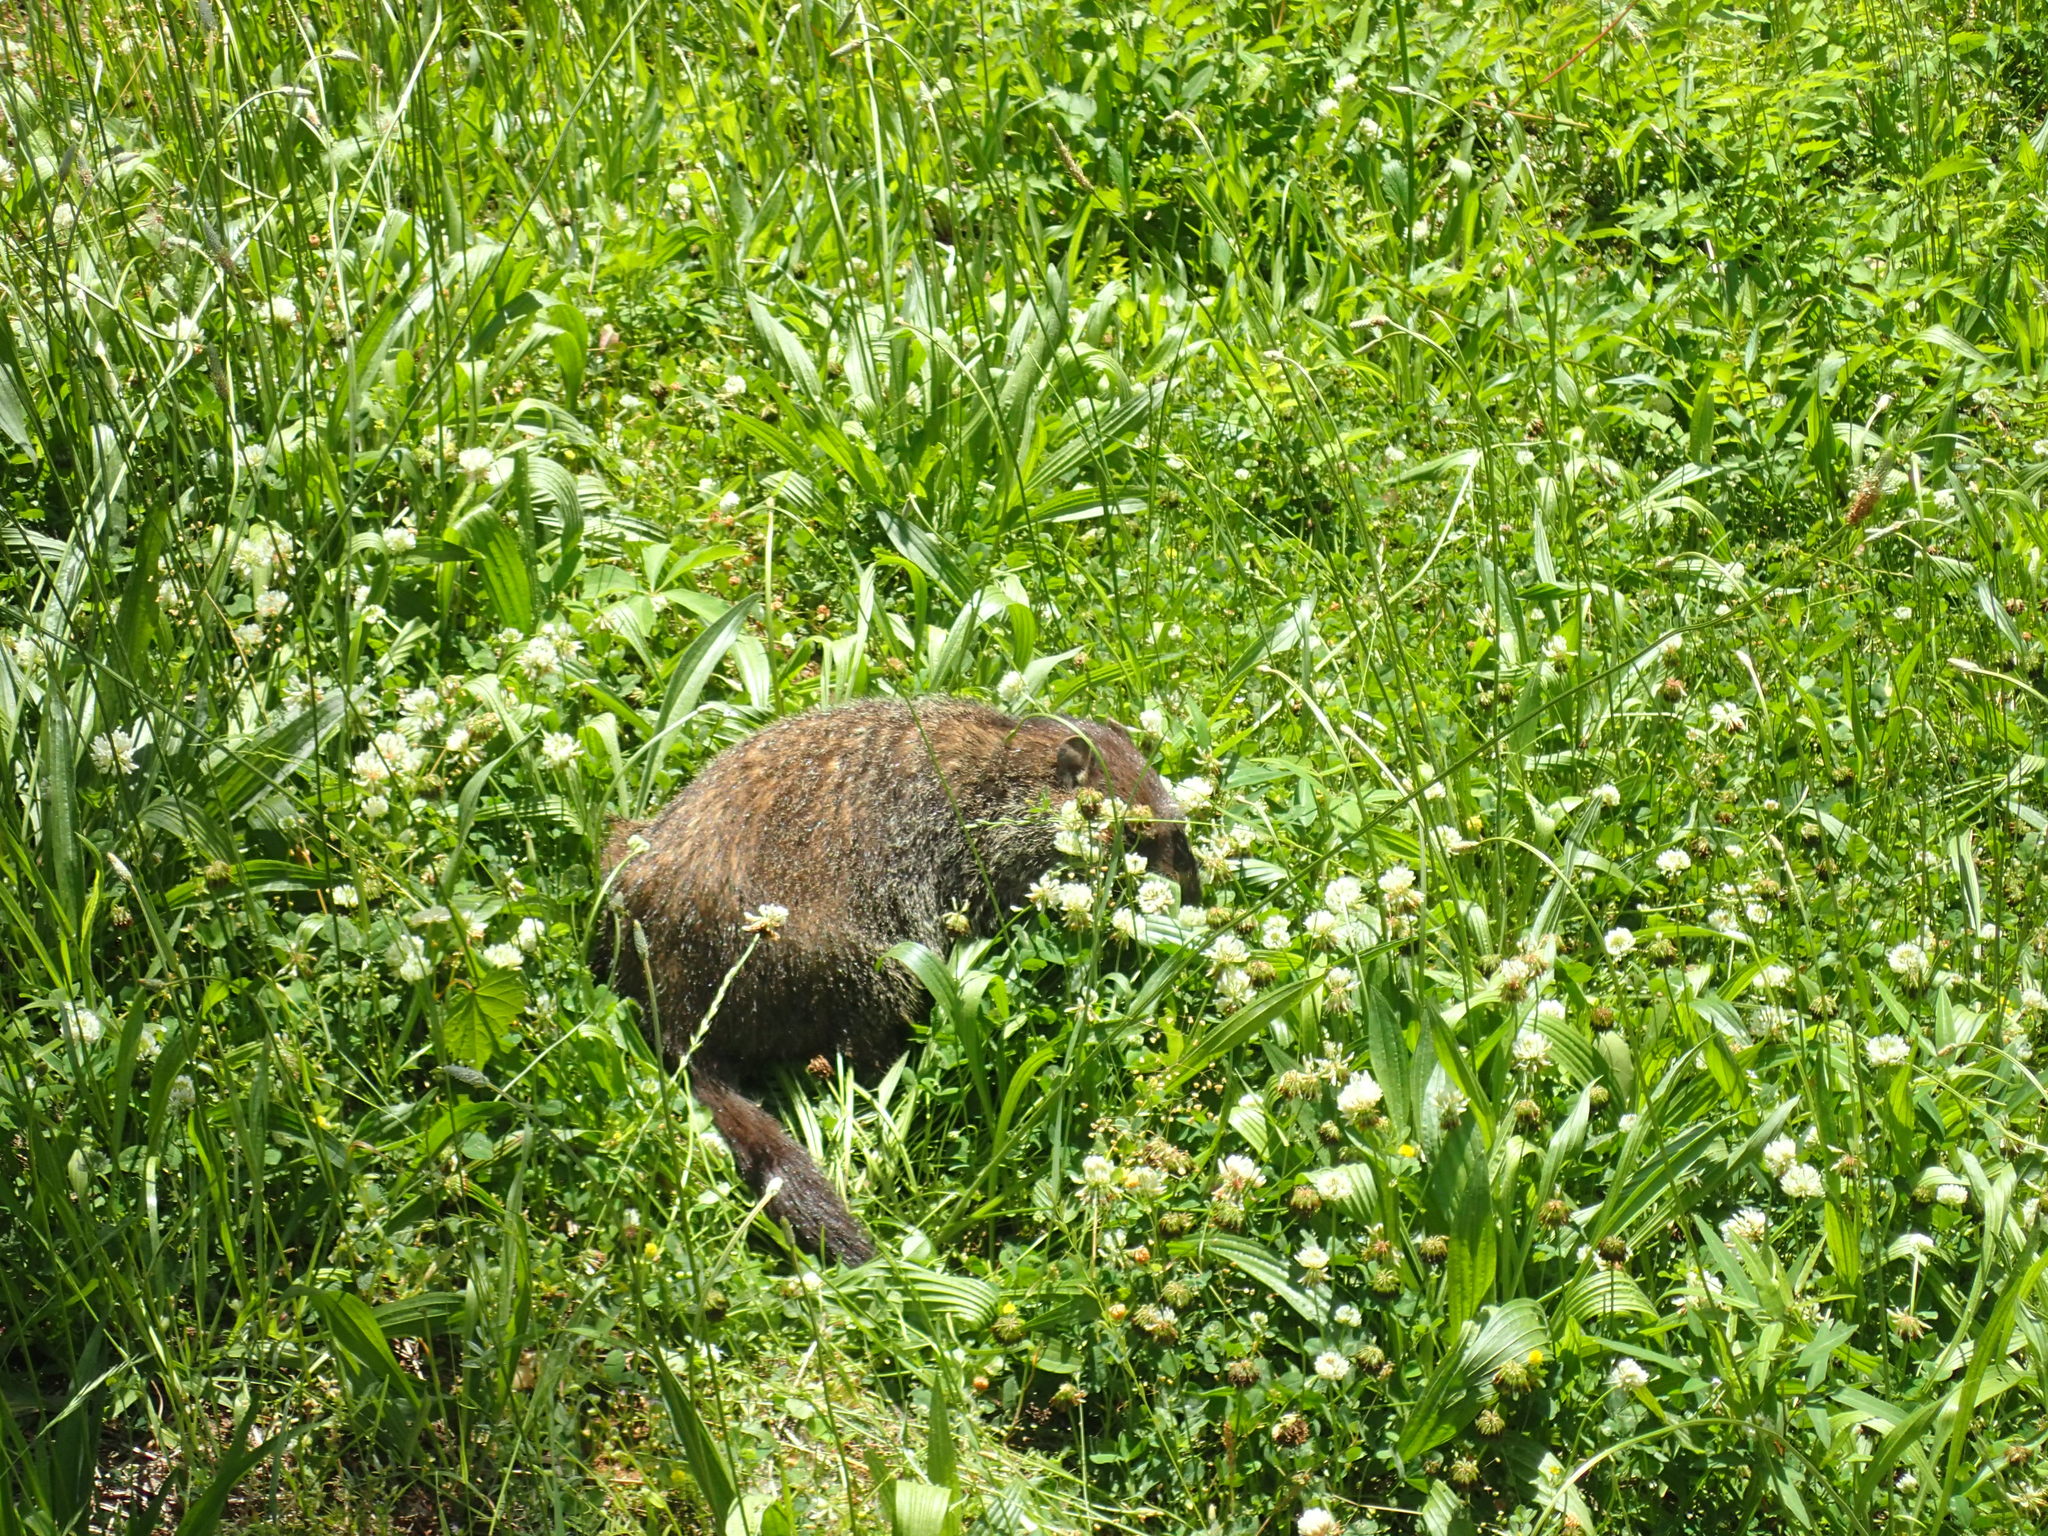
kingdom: Animalia
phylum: Chordata
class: Mammalia
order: Rodentia
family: Sciuridae
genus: Marmota
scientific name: Marmota monax
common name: Groundhog
